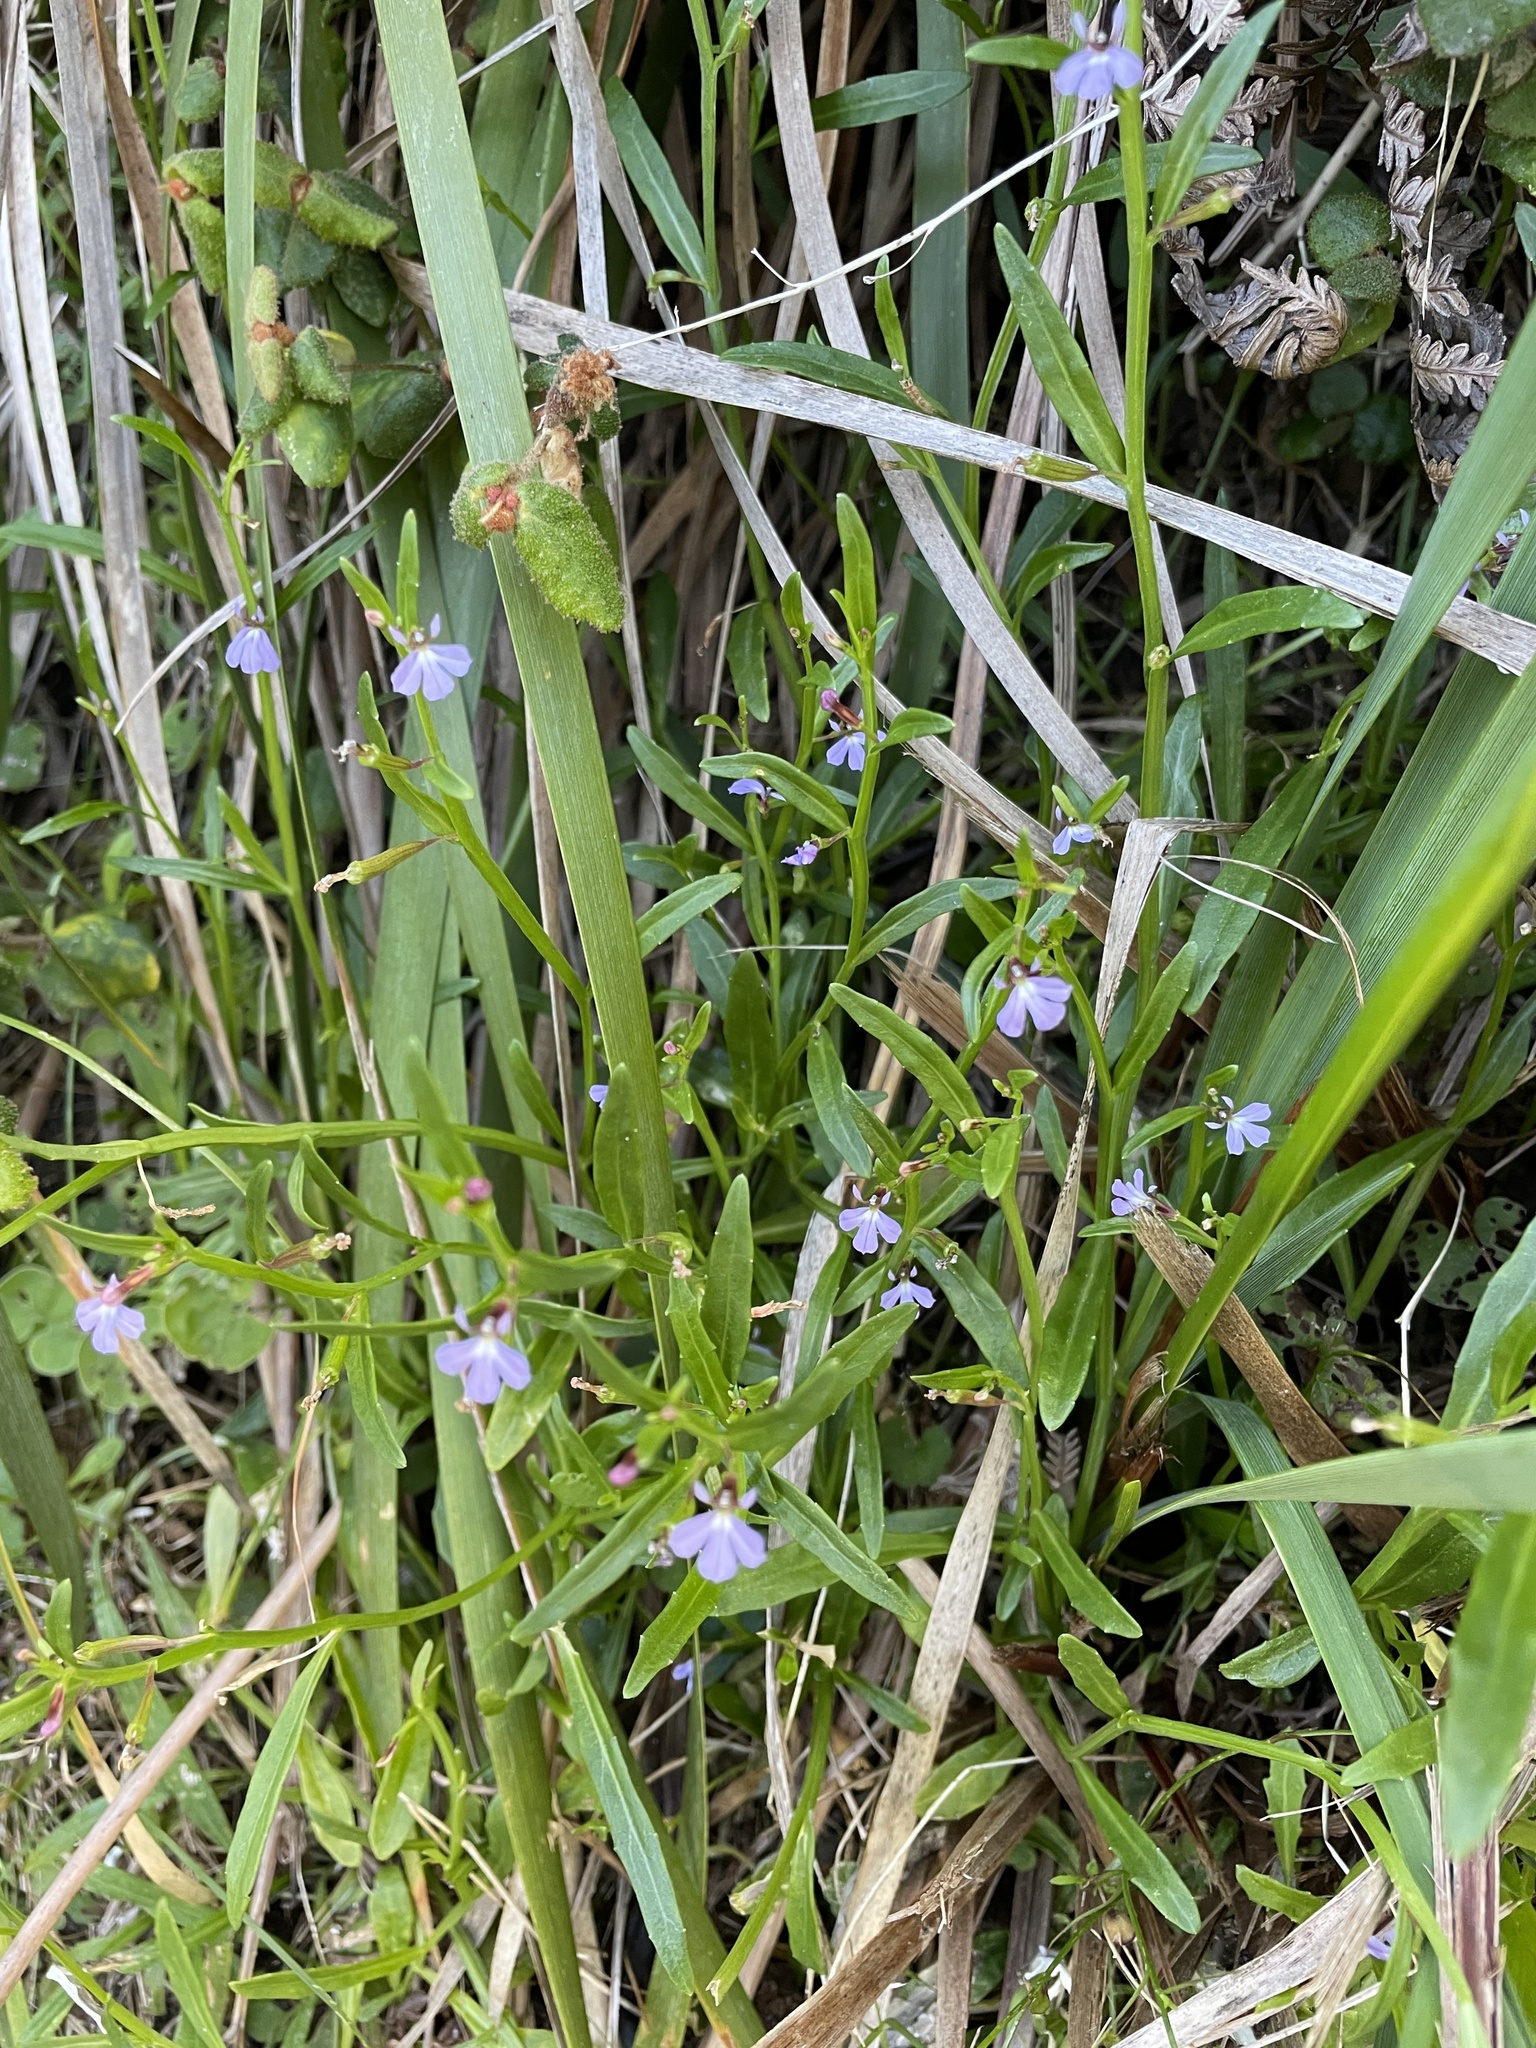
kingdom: Plantae
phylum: Tracheophyta
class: Magnoliopsida
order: Asterales
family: Campanulaceae
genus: Lobelia
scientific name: Lobelia anceps
